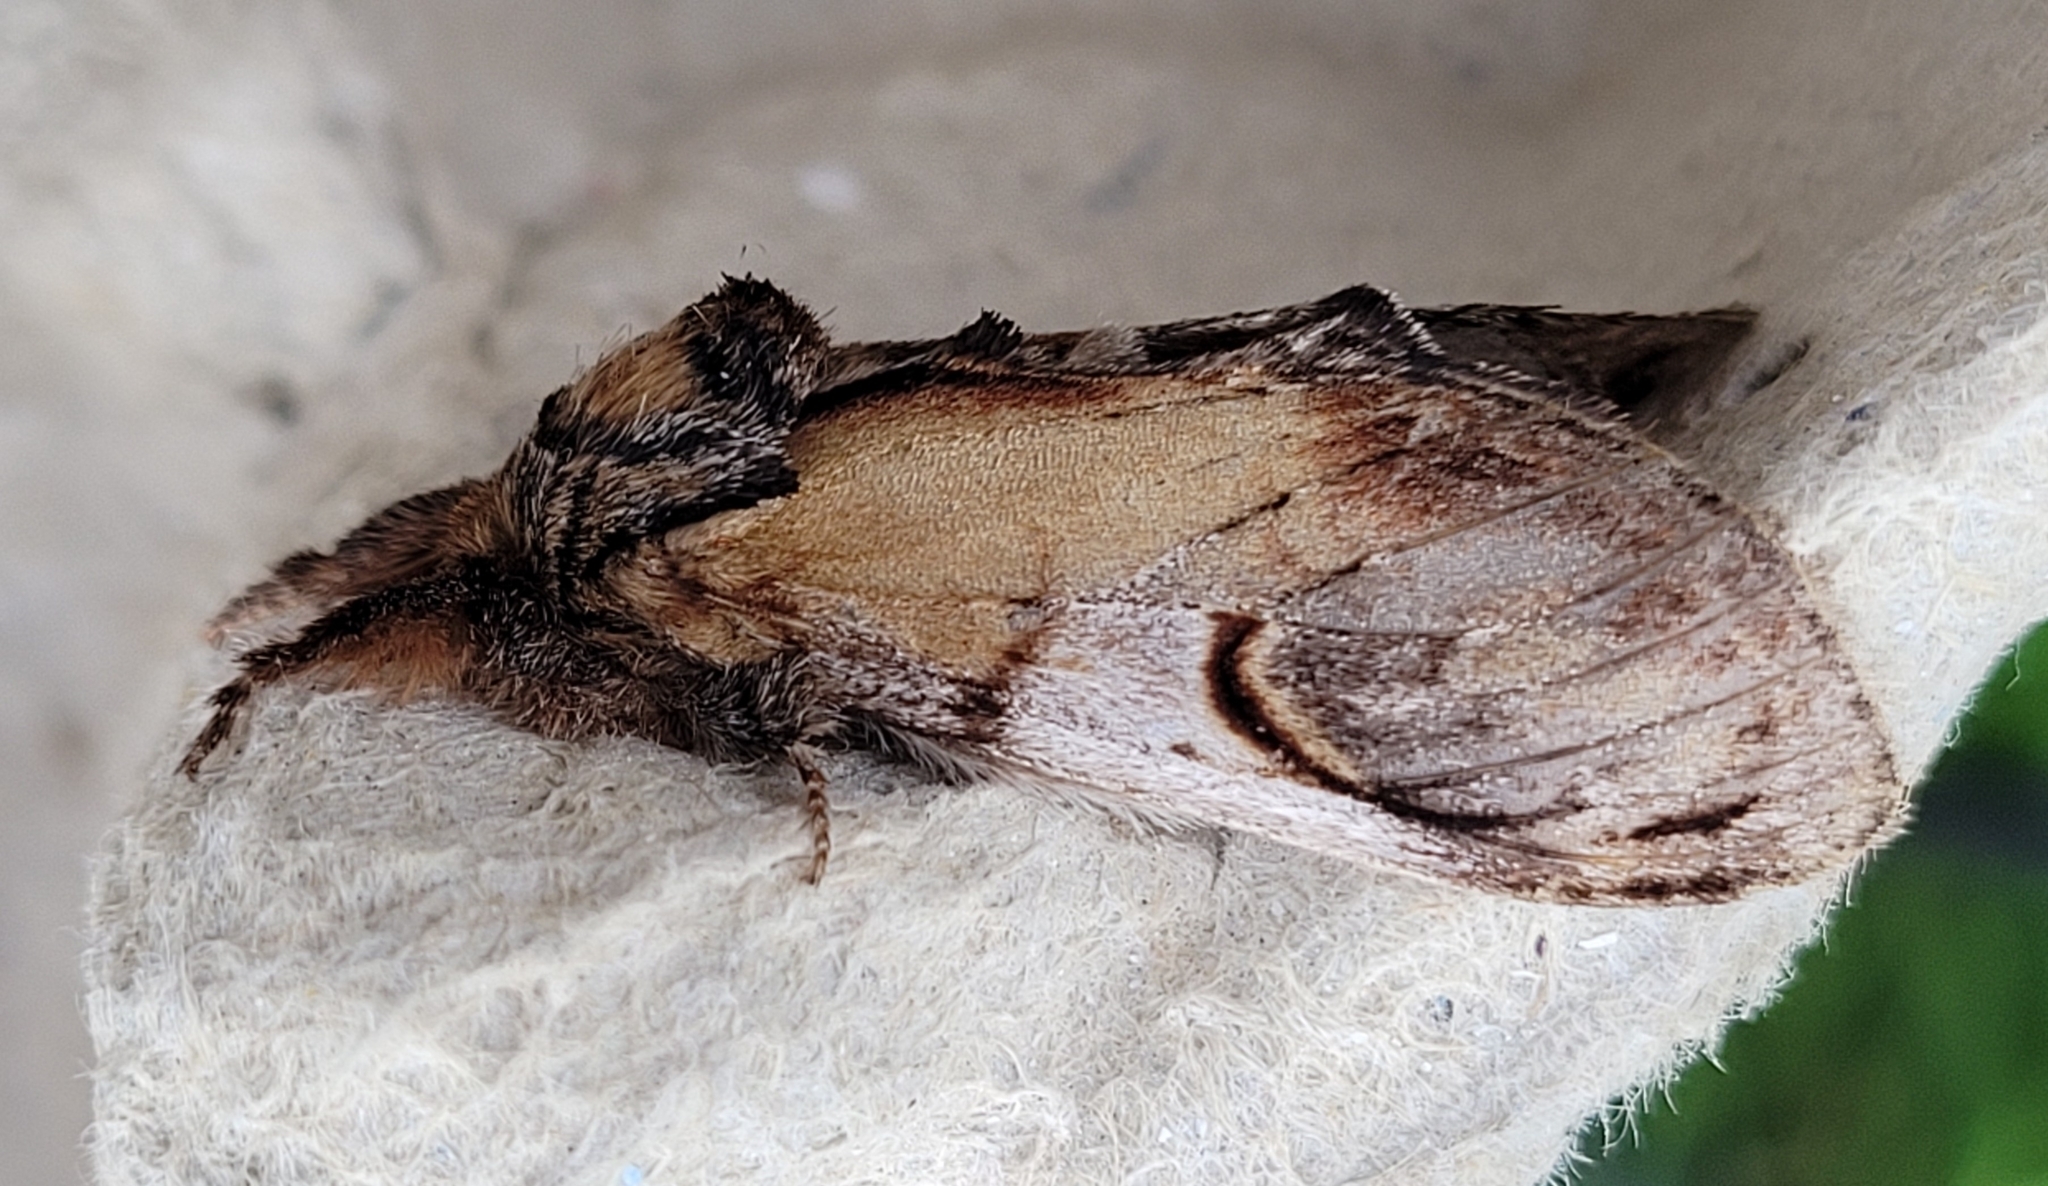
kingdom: Animalia
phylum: Arthropoda
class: Insecta
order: Lepidoptera
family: Notodontidae
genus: Notodonta
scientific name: Notodonta ziczac
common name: Pebble prominent
